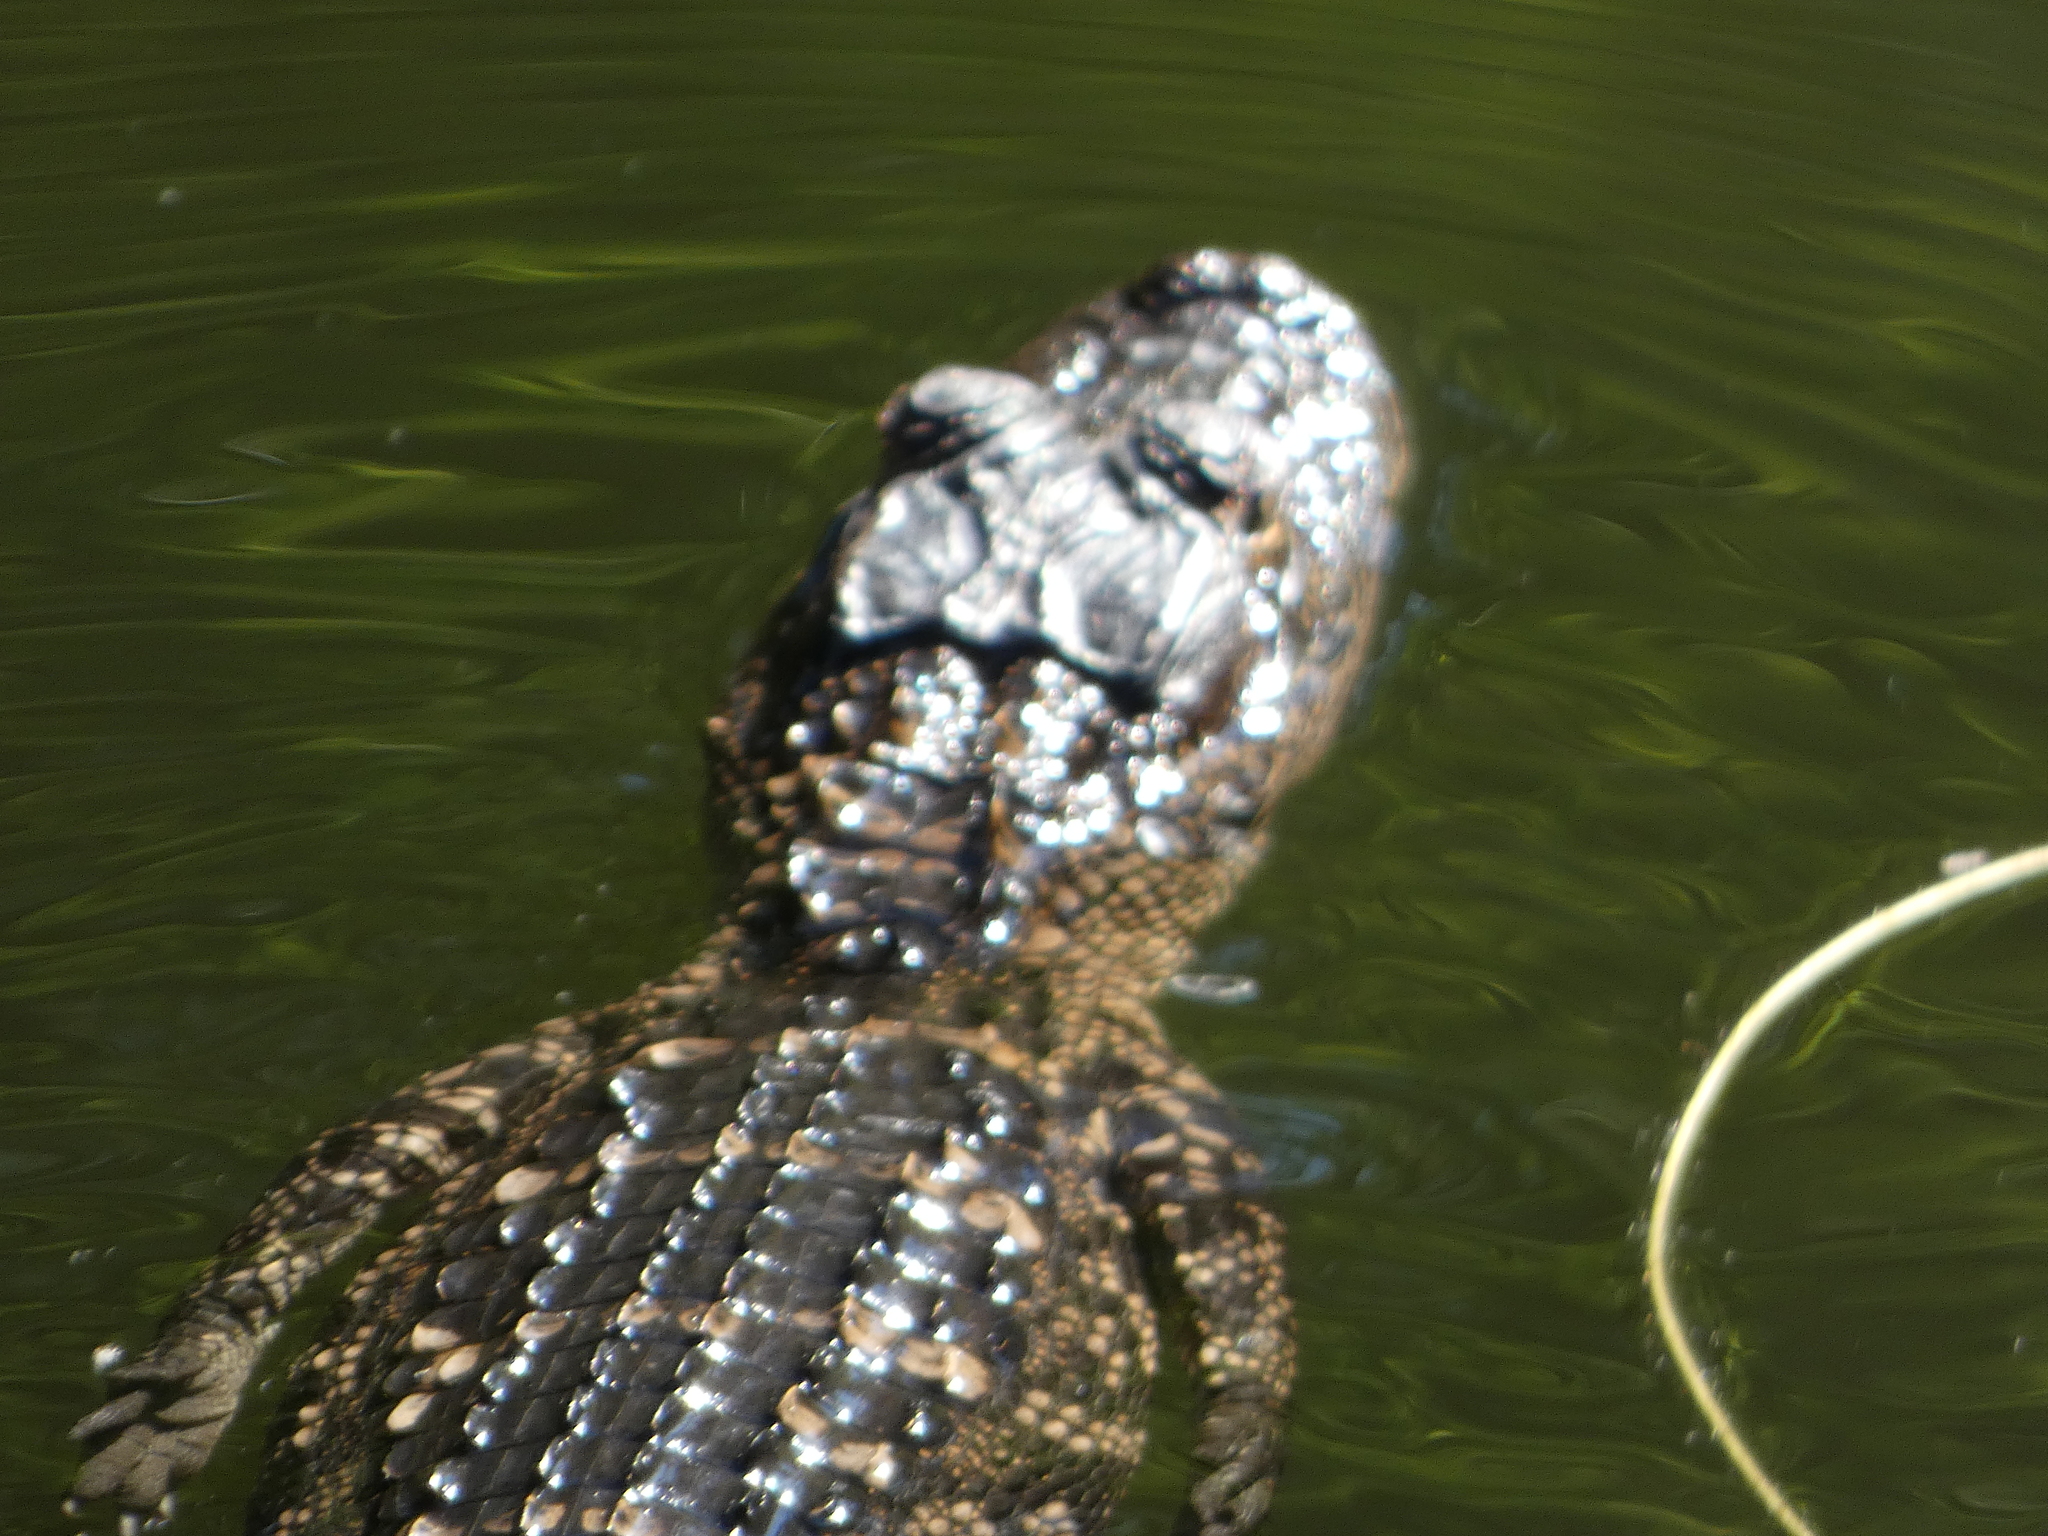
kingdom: Animalia
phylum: Chordata
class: Crocodylia
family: Alligatoridae
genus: Alligator
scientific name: Alligator mississippiensis
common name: American alligator
